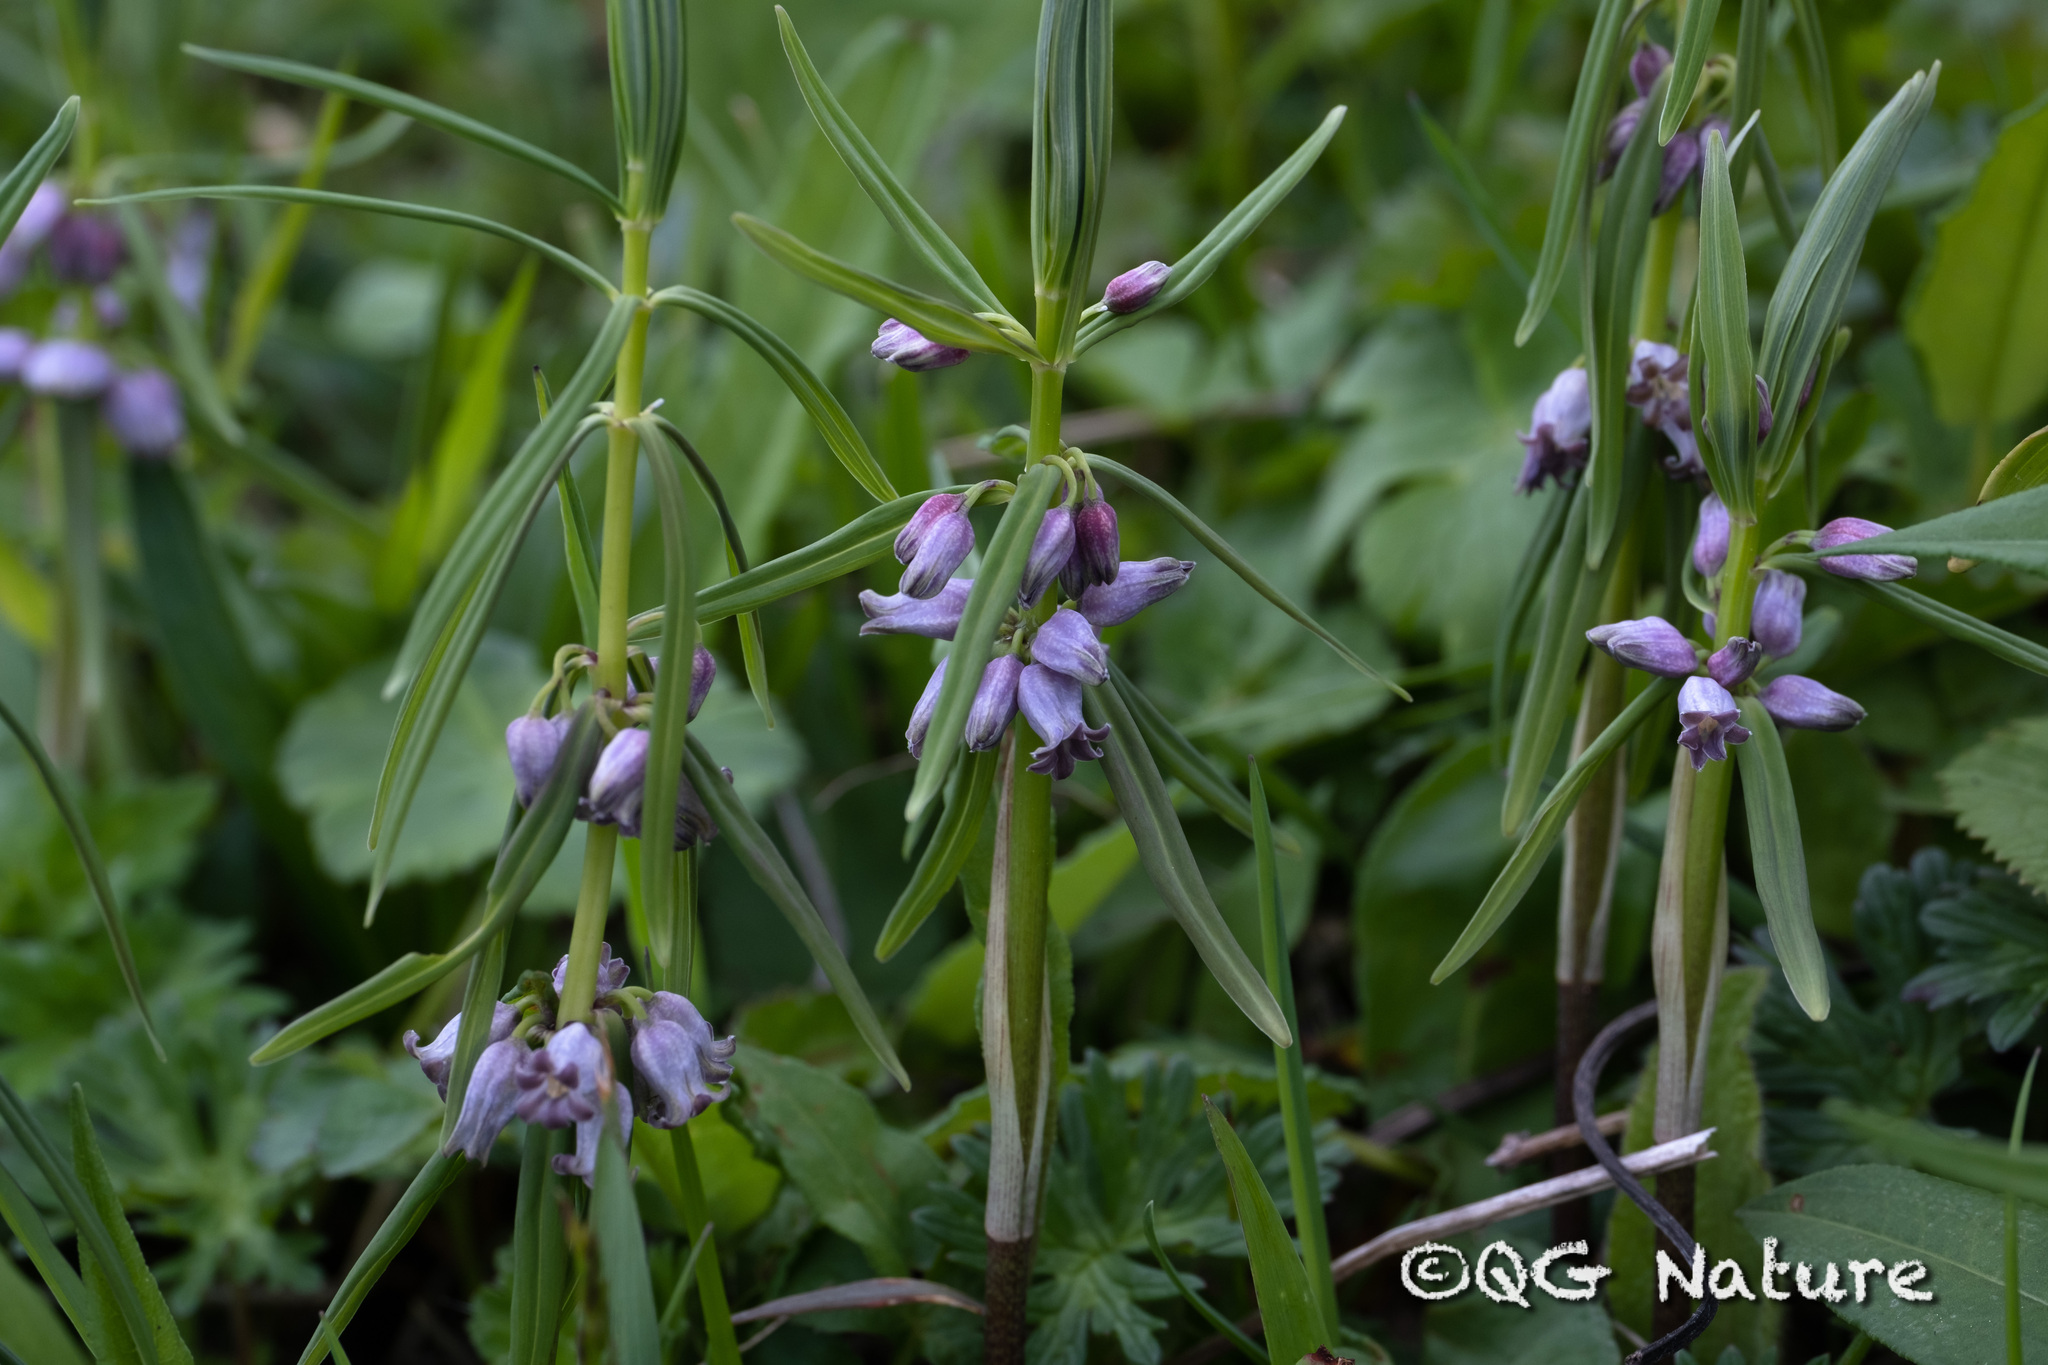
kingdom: Plantae
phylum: Tracheophyta
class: Liliopsida
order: Asparagales
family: Asparagaceae
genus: Polygonatum
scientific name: Polygonatum curvistylum
